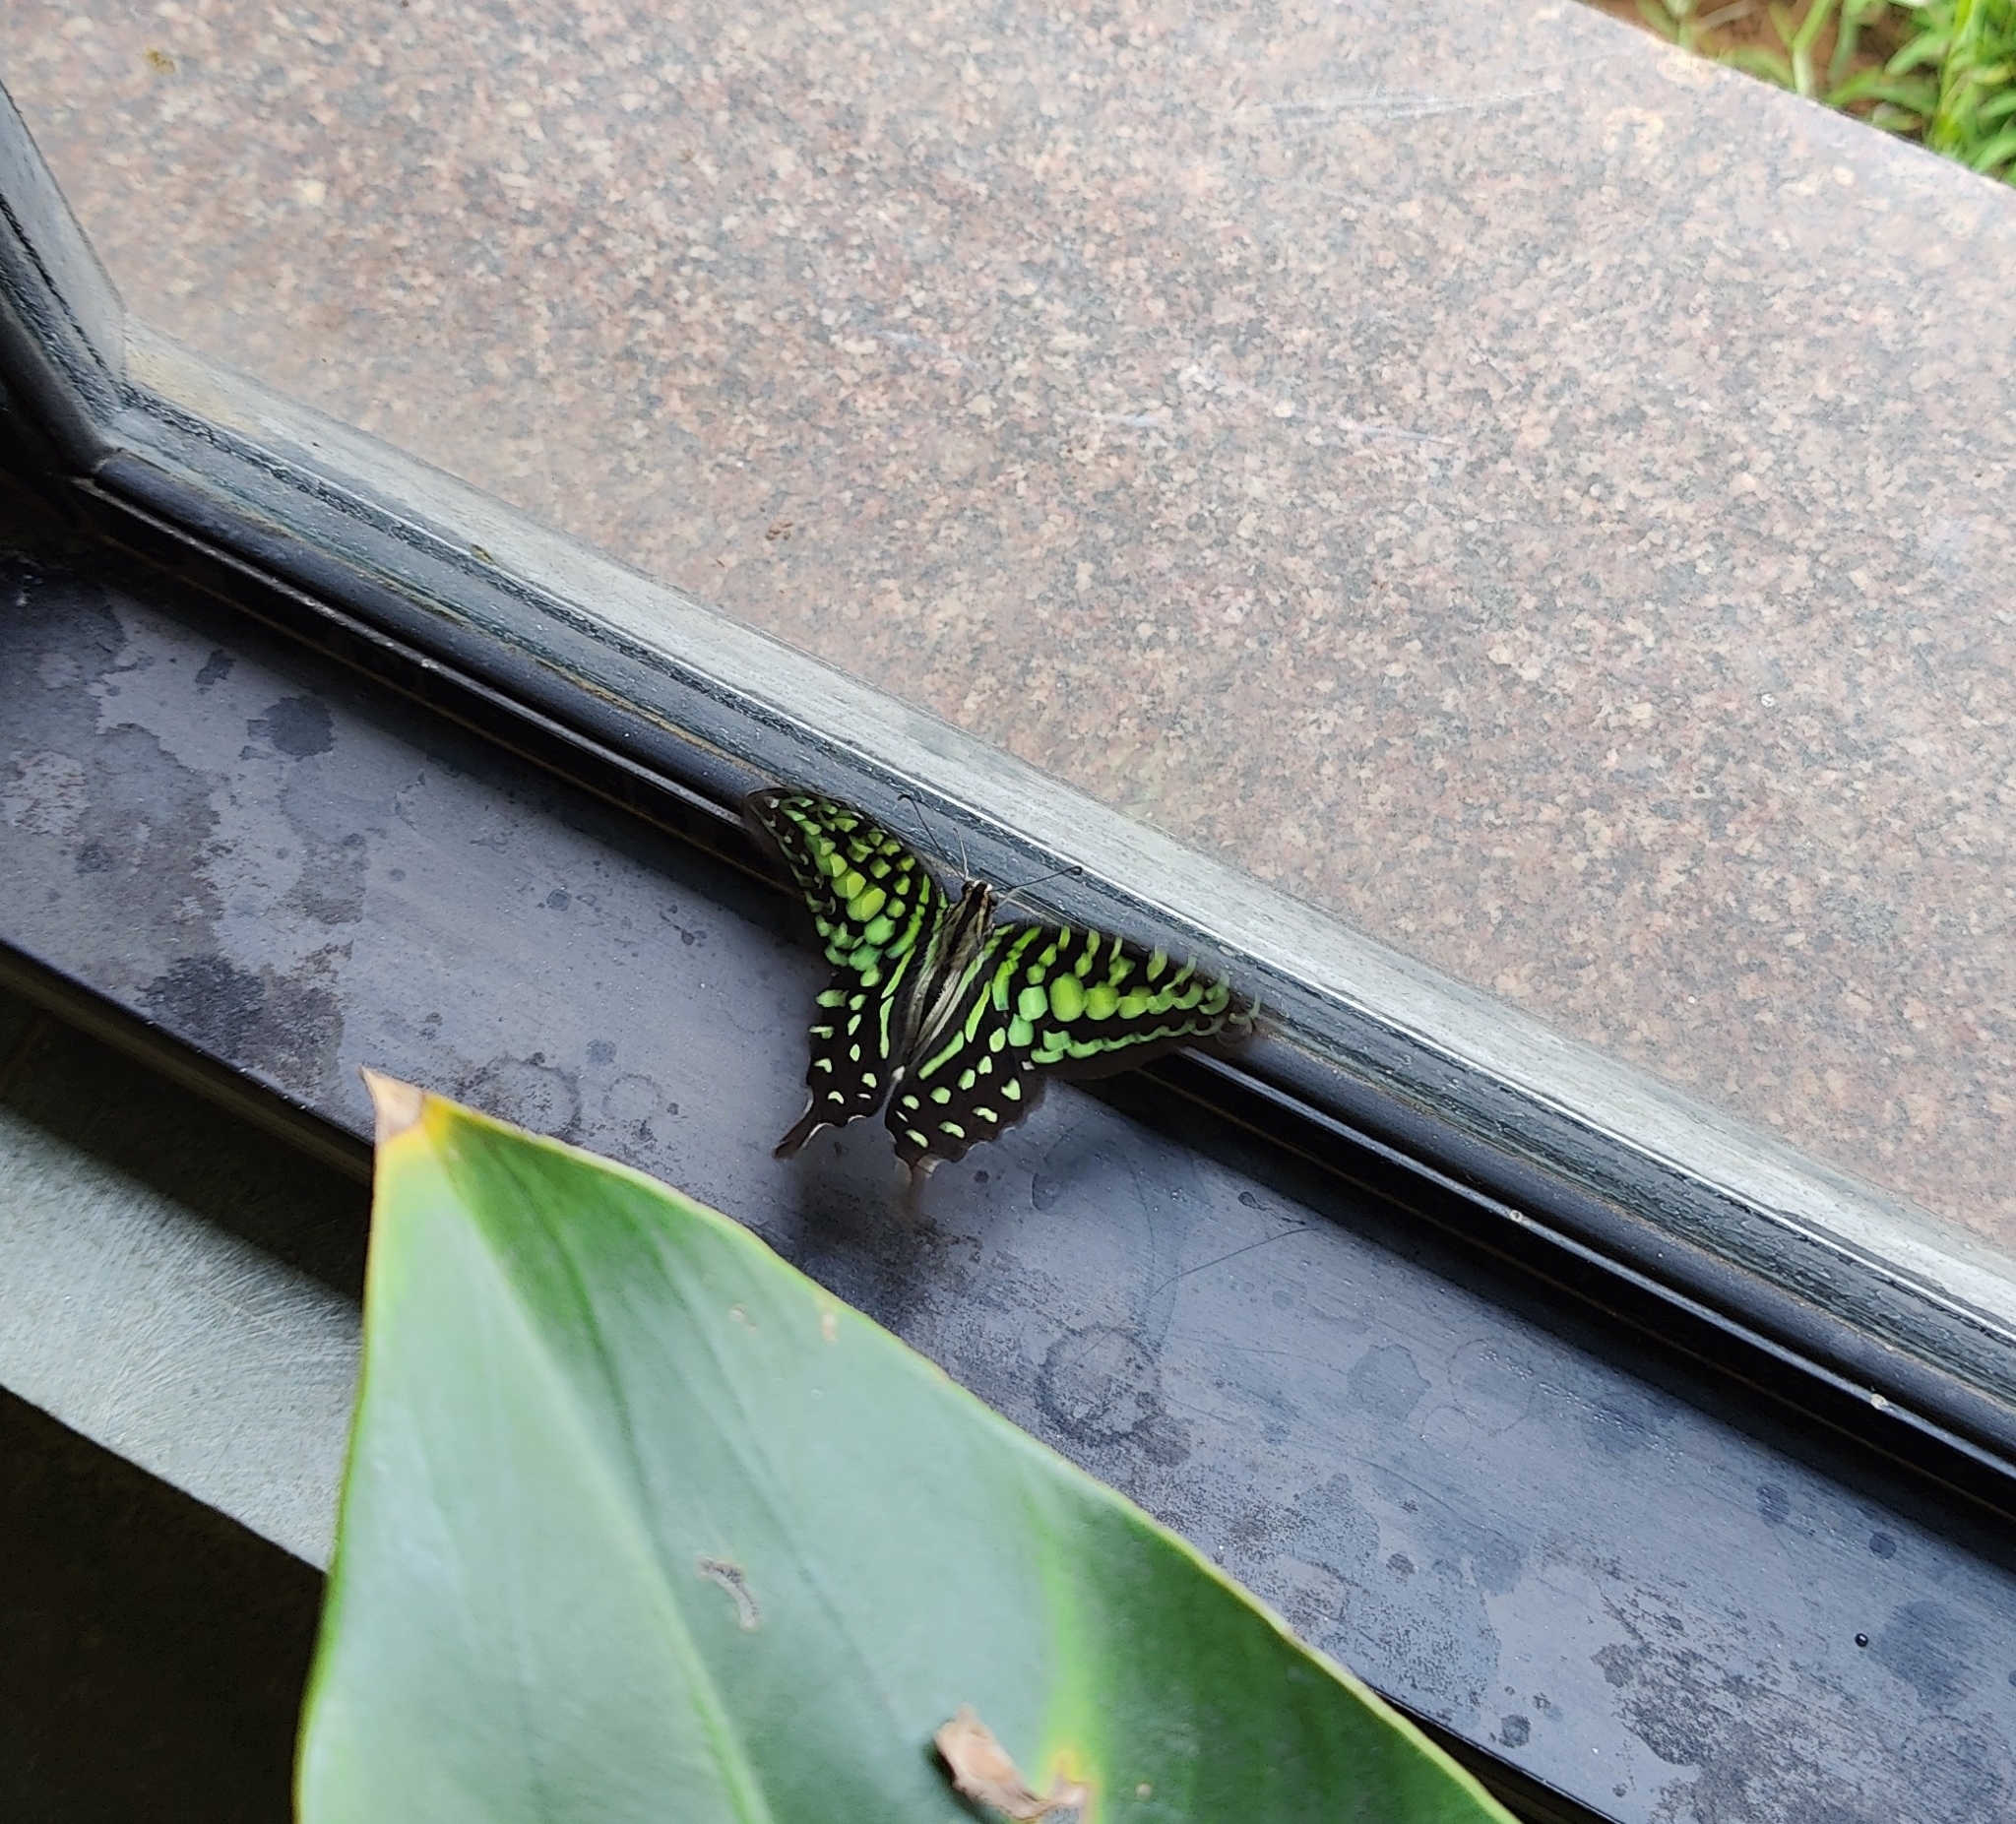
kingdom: Animalia
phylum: Arthropoda
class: Insecta
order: Lepidoptera
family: Papilionidae
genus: Graphium
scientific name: Graphium agamemnon
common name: Tailed jay
